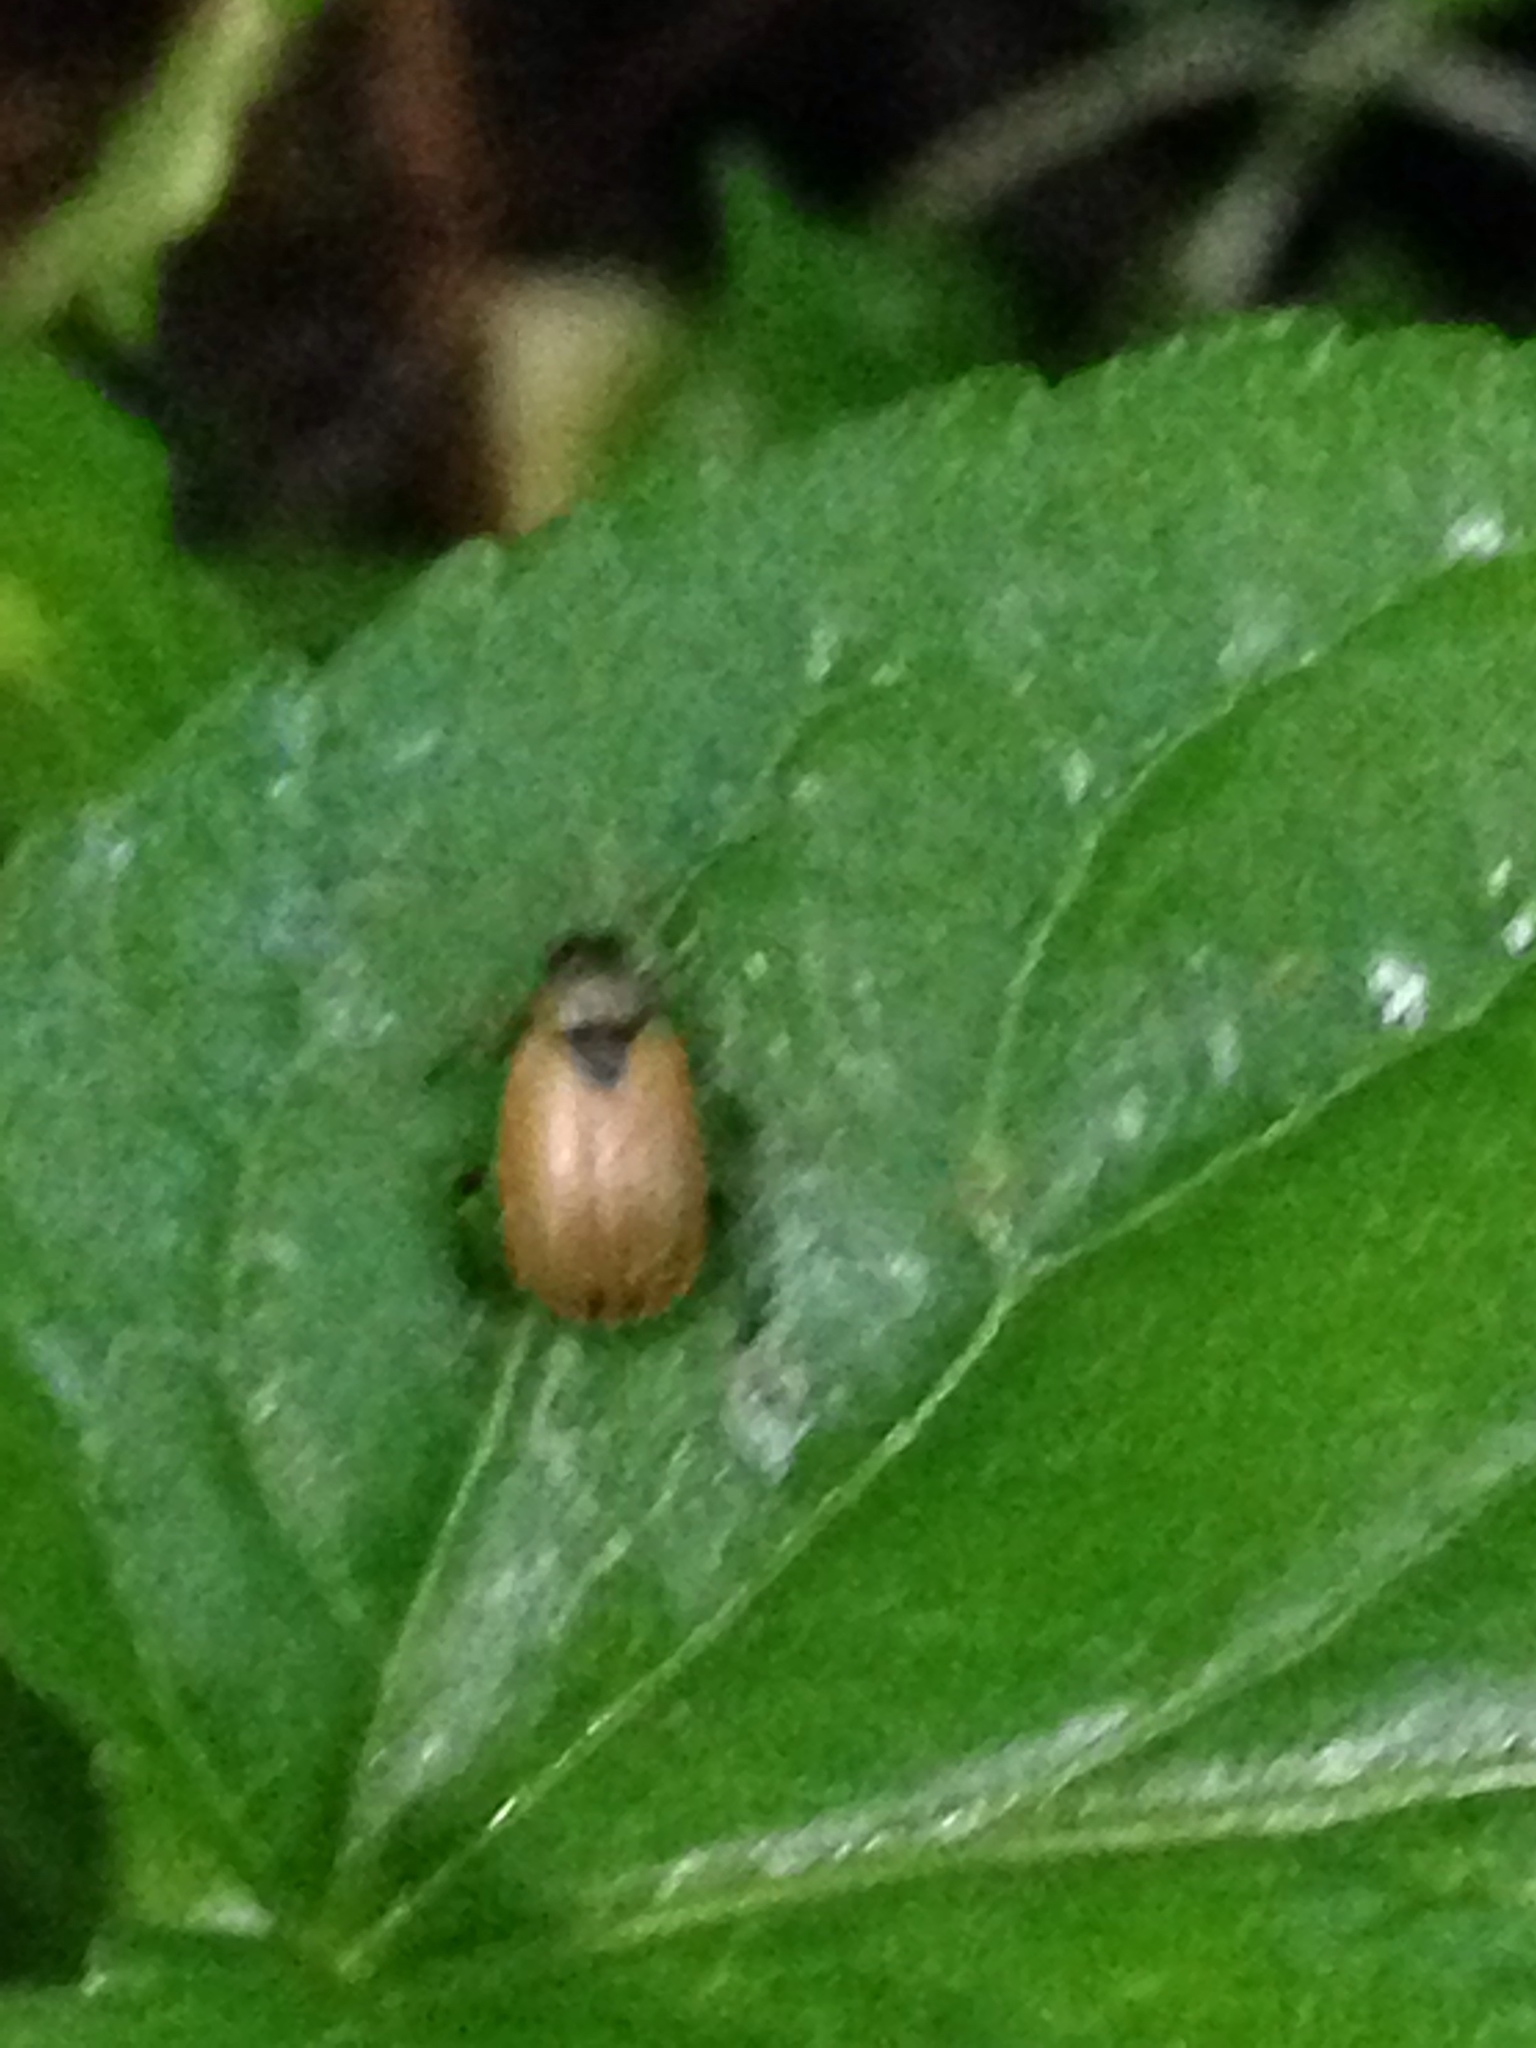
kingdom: Animalia
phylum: Arthropoda
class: Insecta
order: Coleoptera
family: Chrysomelidae
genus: Cerotoma
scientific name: Cerotoma trifurcata
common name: Bean leaf beetle
